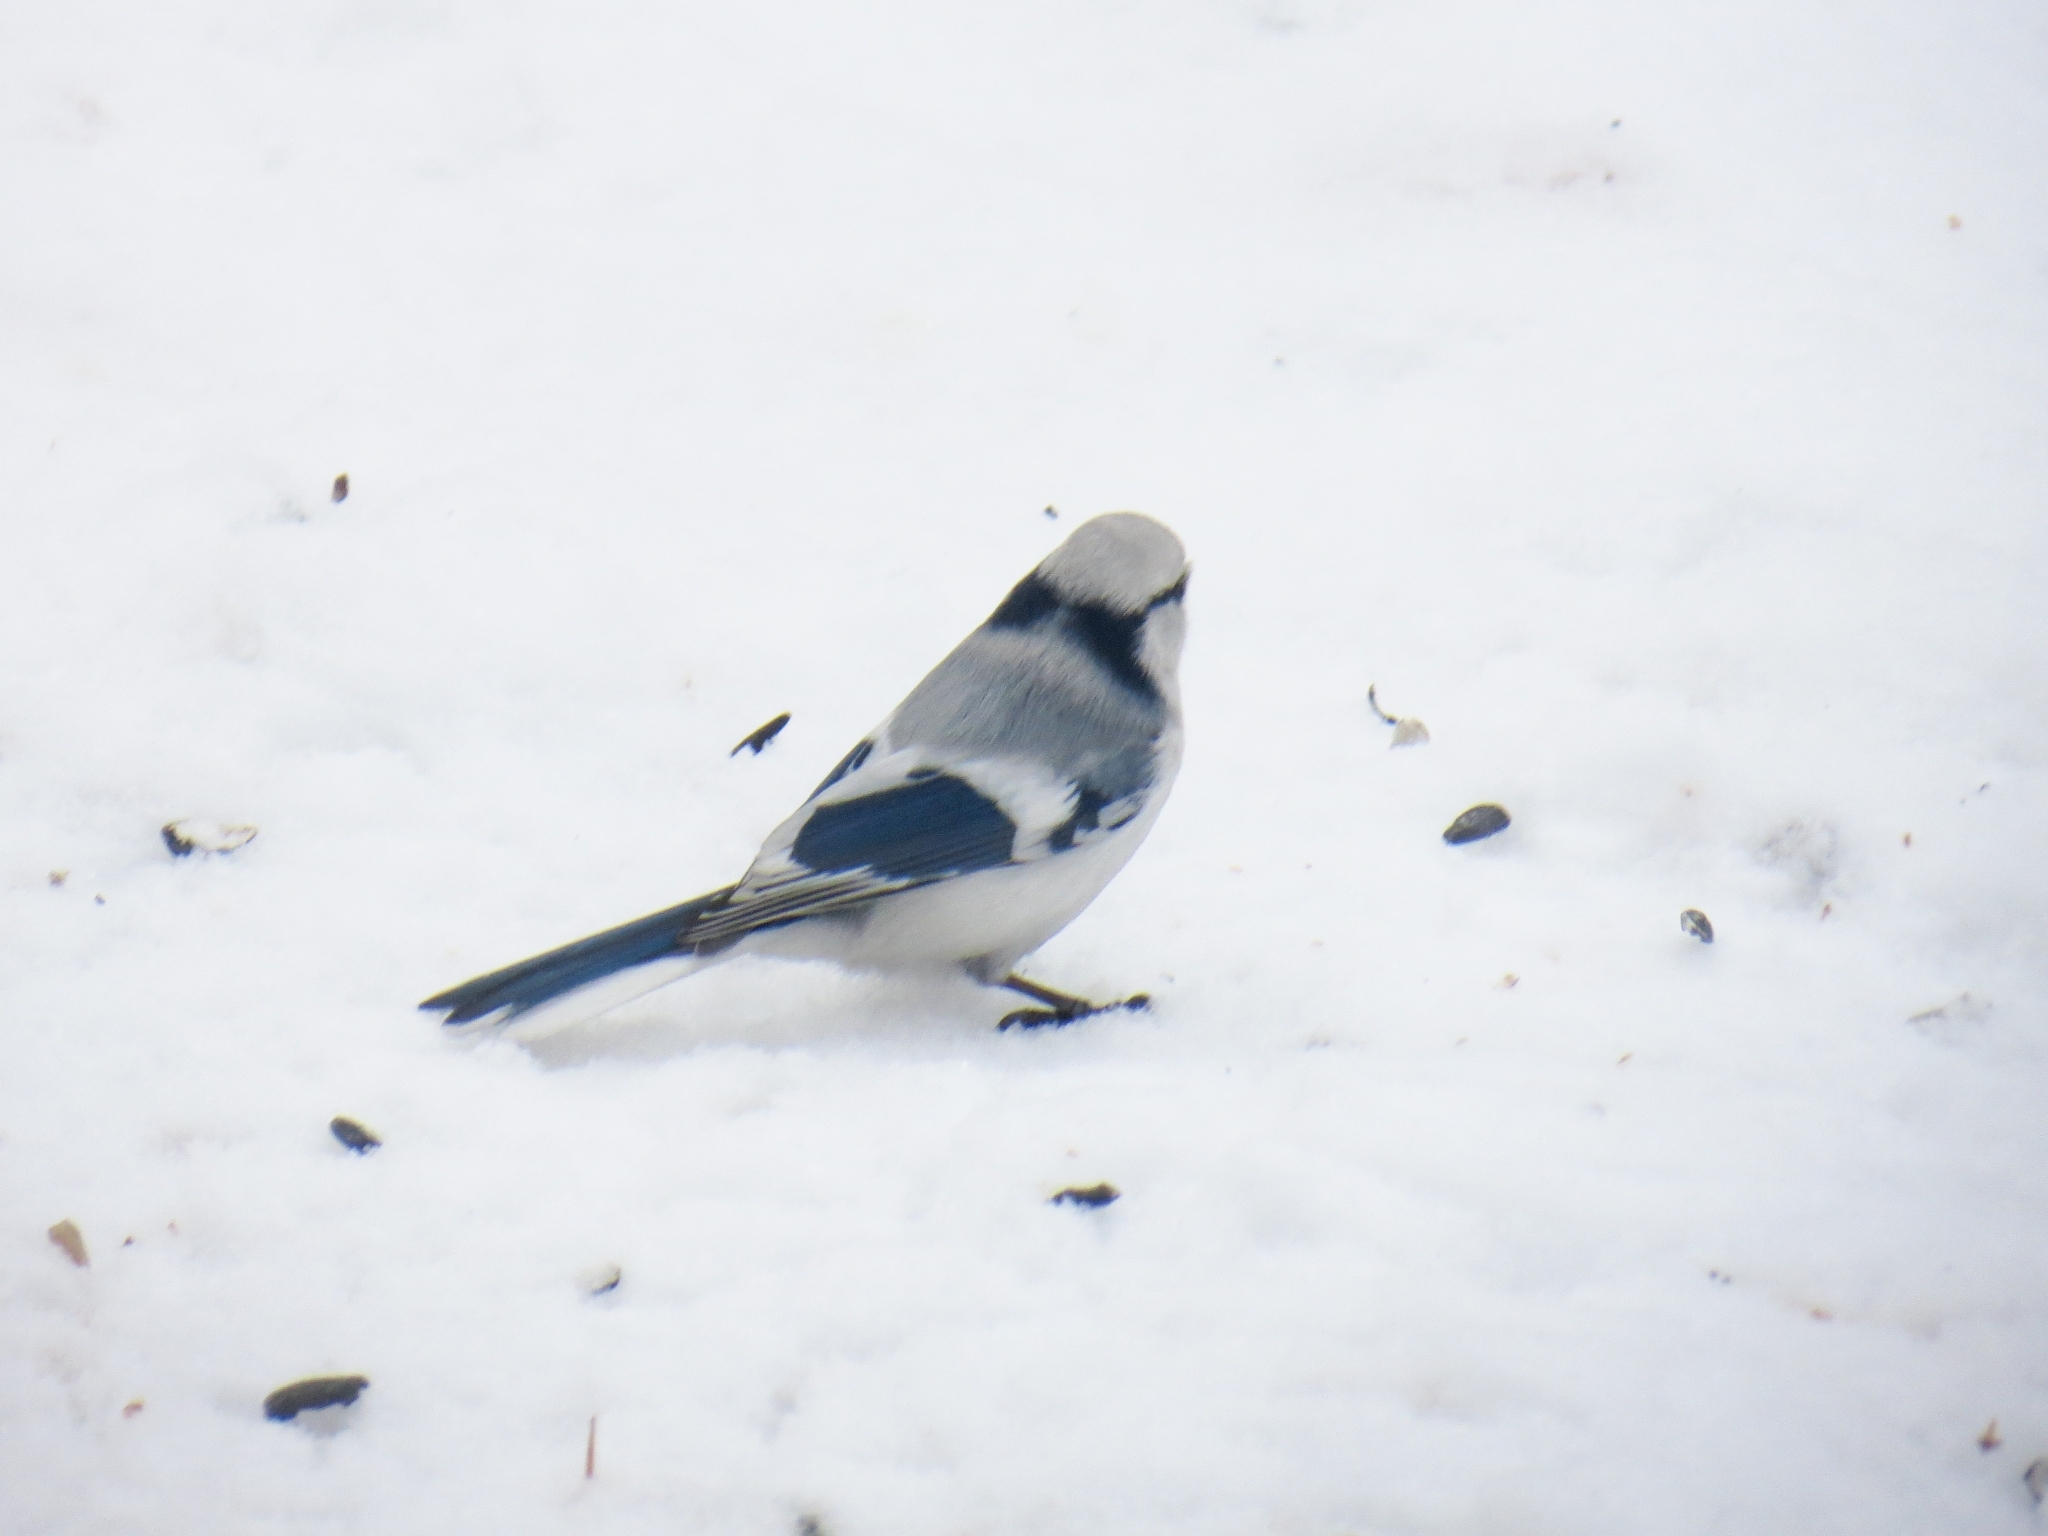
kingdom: Animalia
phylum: Chordata
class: Aves
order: Passeriformes
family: Paridae
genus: Cyanistes
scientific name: Cyanistes cyanus
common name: Azure tit
